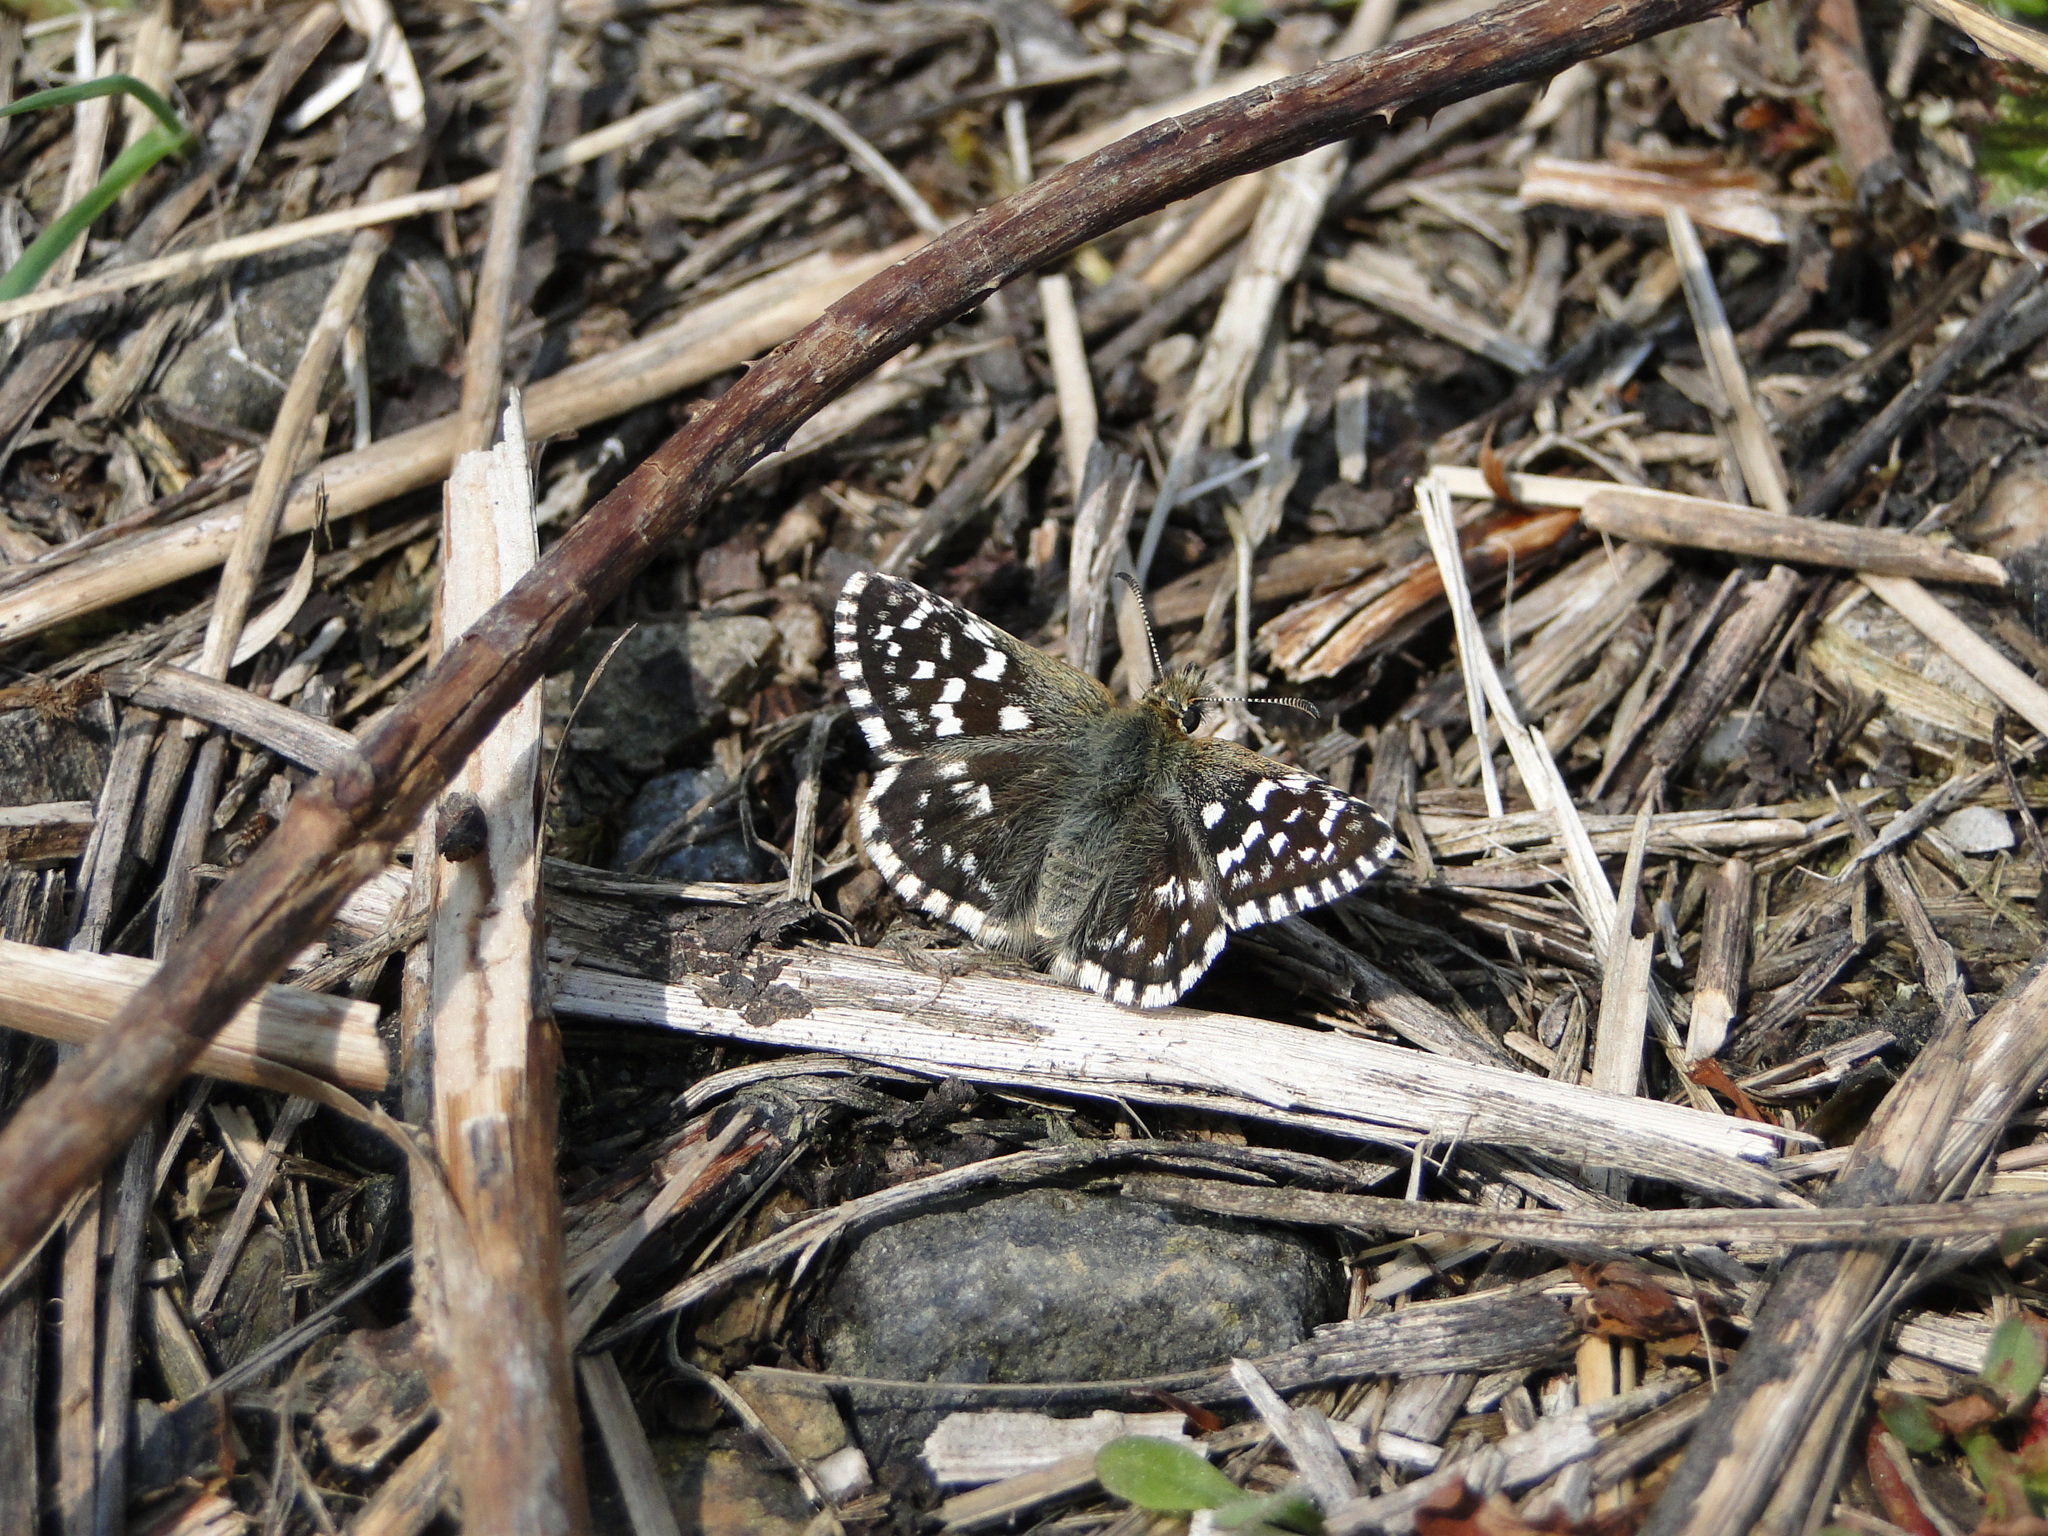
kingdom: Animalia
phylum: Arthropoda
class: Insecta
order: Lepidoptera
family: Hesperiidae
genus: Pyrgus
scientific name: Pyrgus malvae
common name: Grizzled skipper
